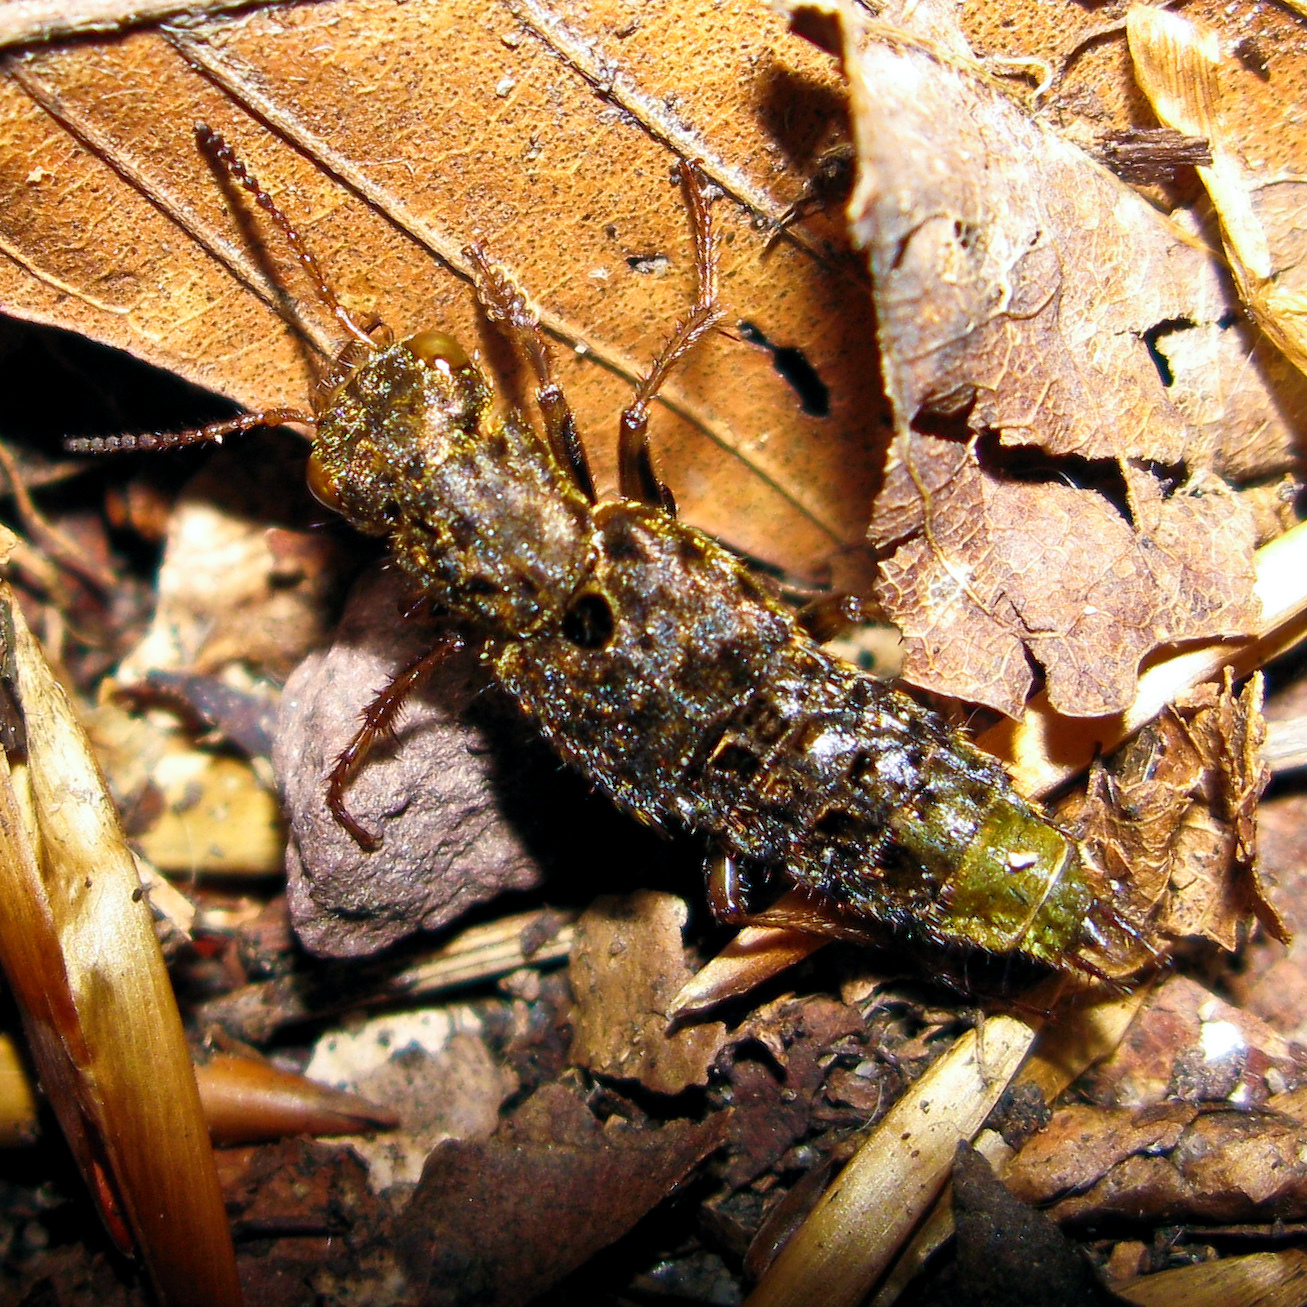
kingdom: Animalia
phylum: Arthropoda
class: Insecta
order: Coleoptera
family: Staphylinidae
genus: Ontholestes
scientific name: Ontholestes cingulatus
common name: Gold-and-brown rove beetle
